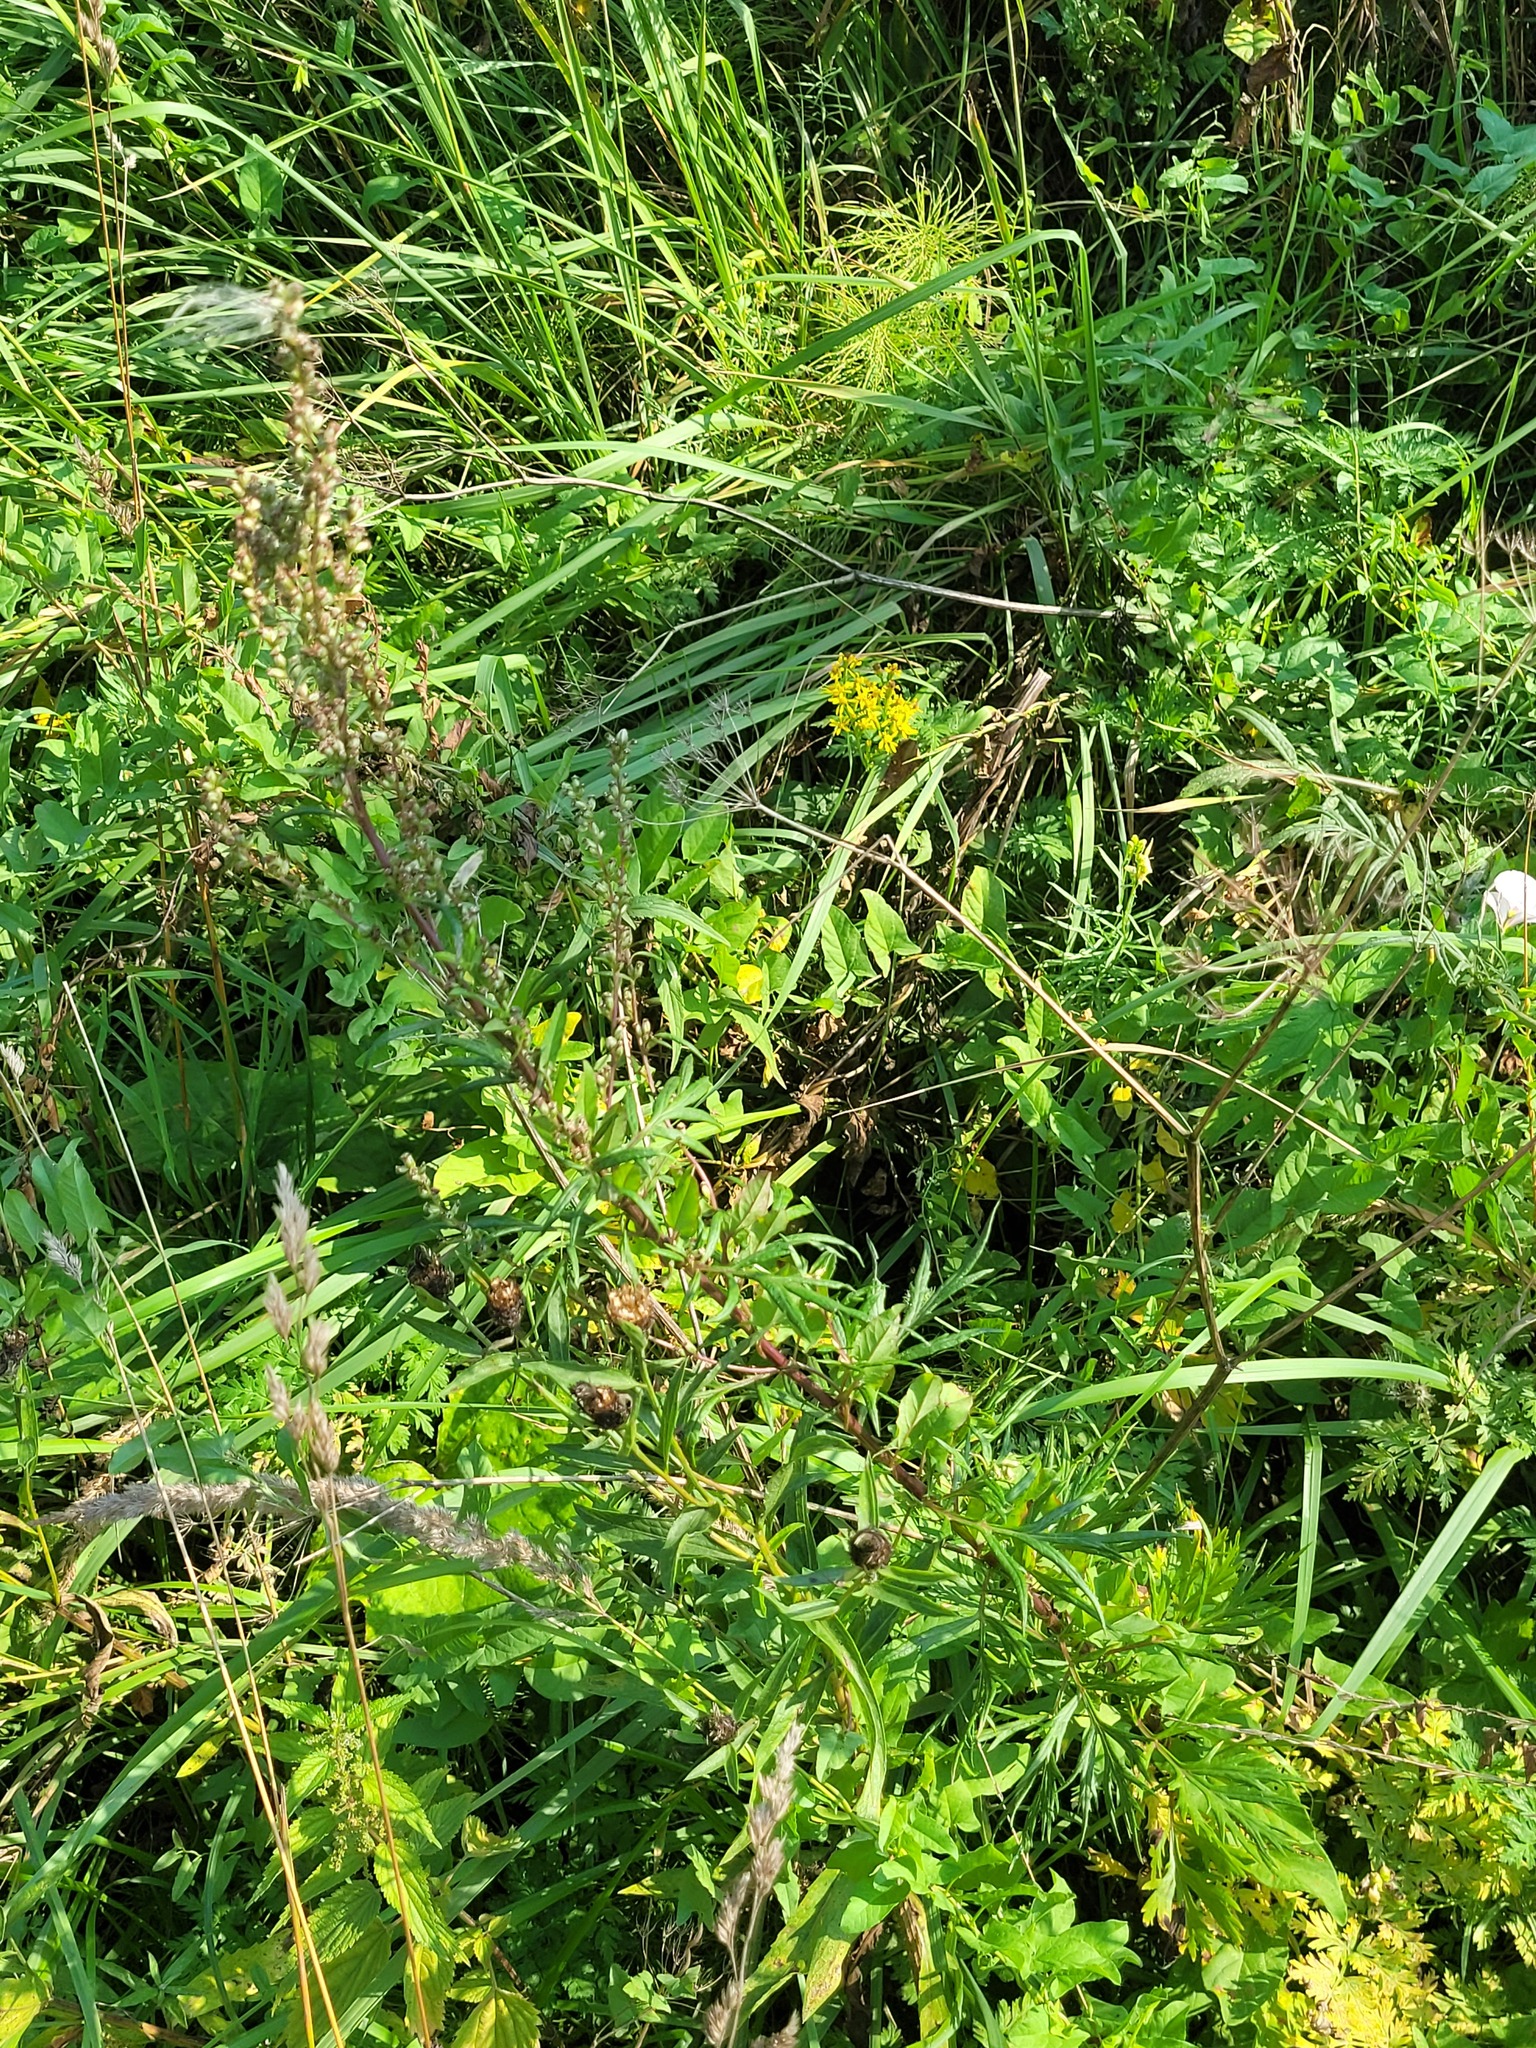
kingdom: Plantae
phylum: Tracheophyta
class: Magnoliopsida
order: Asterales
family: Asteraceae
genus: Artemisia
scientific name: Artemisia vulgaris
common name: Mugwort
